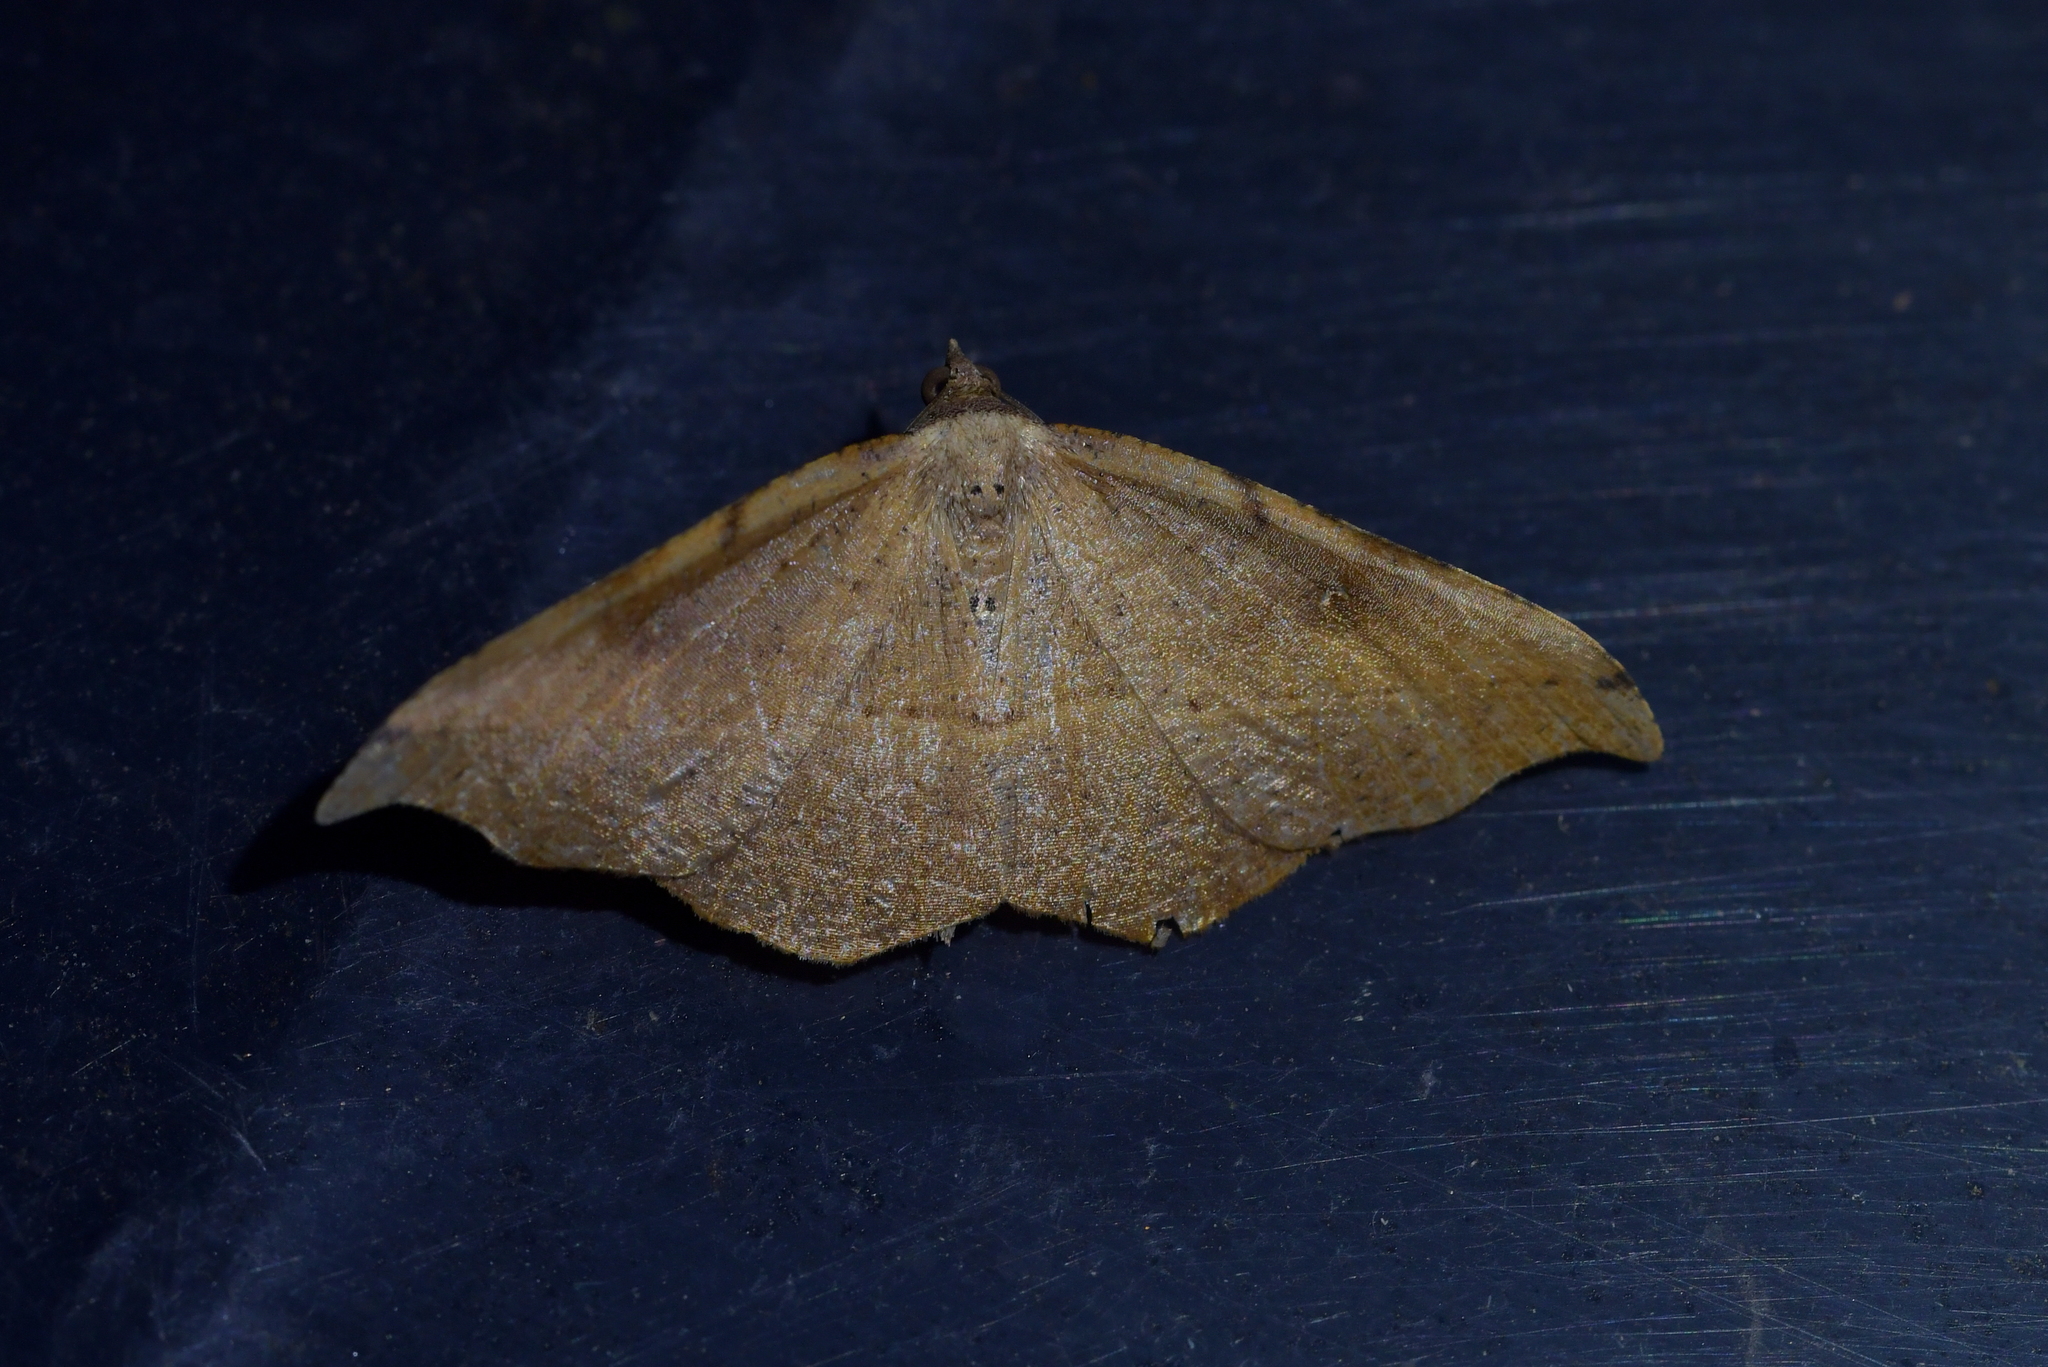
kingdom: Animalia
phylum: Arthropoda
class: Insecta
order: Lepidoptera
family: Geometridae
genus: Sarisa
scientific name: Sarisa muriferata
